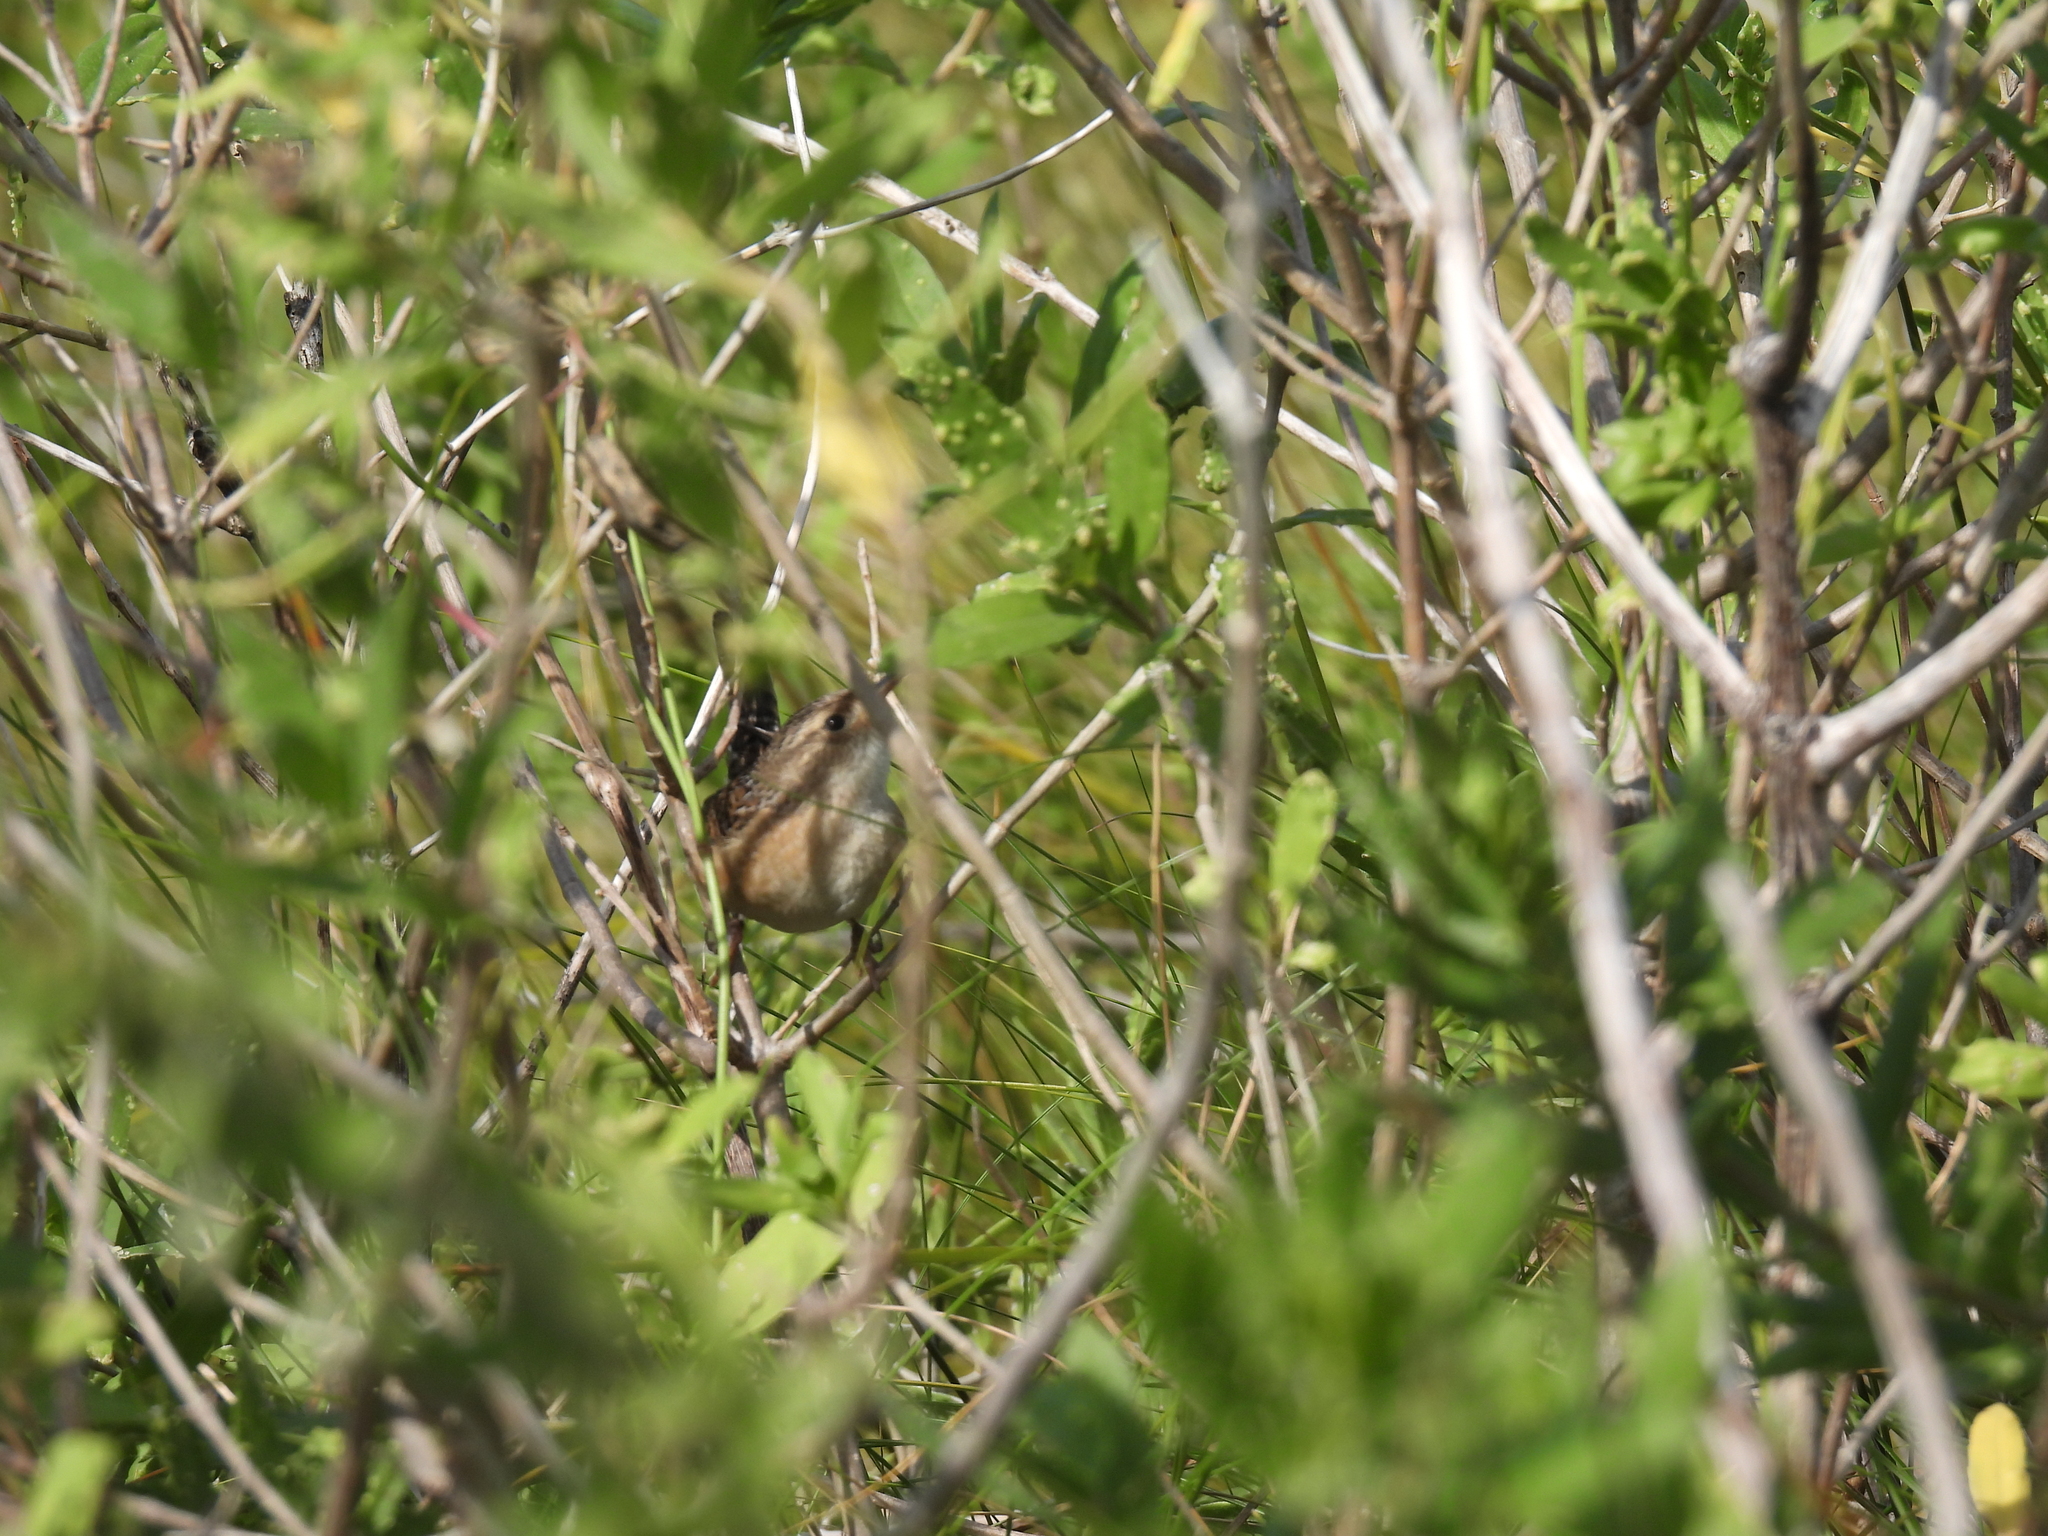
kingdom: Animalia
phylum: Chordata
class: Aves
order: Passeriformes
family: Troglodytidae
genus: Cistothorus
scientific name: Cistothorus platensis
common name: Sedge wren
